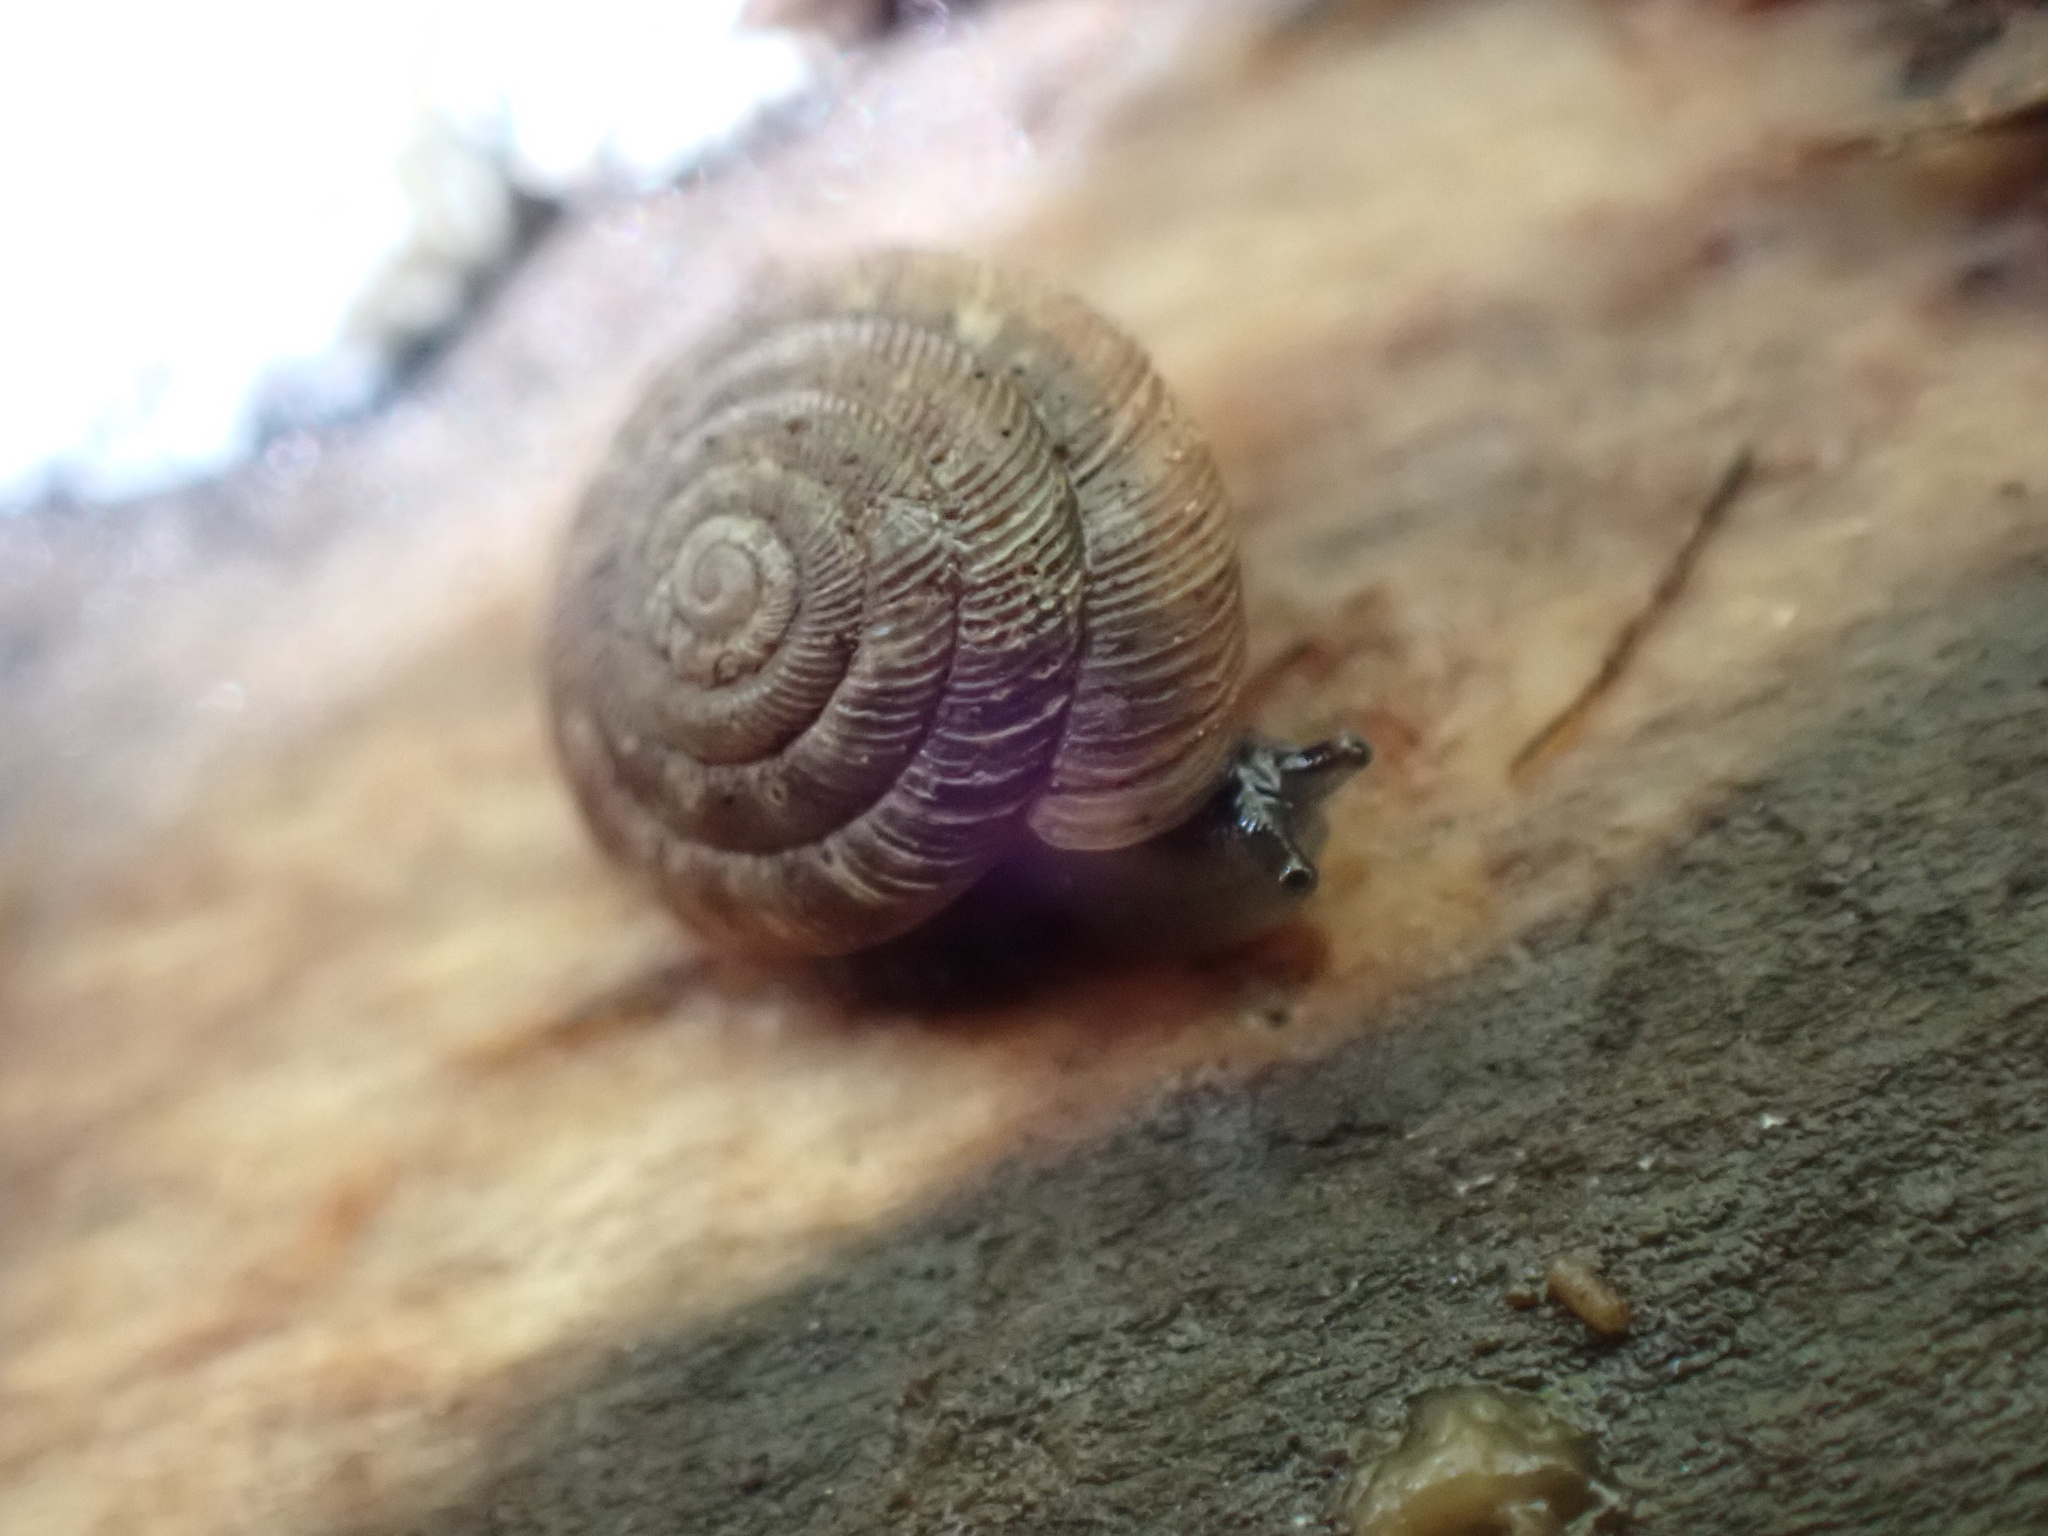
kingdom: Animalia
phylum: Mollusca
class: Gastropoda
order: Stylommatophora
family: Discidae
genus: Discus
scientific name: Discus rotundatus
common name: Rounded snail
